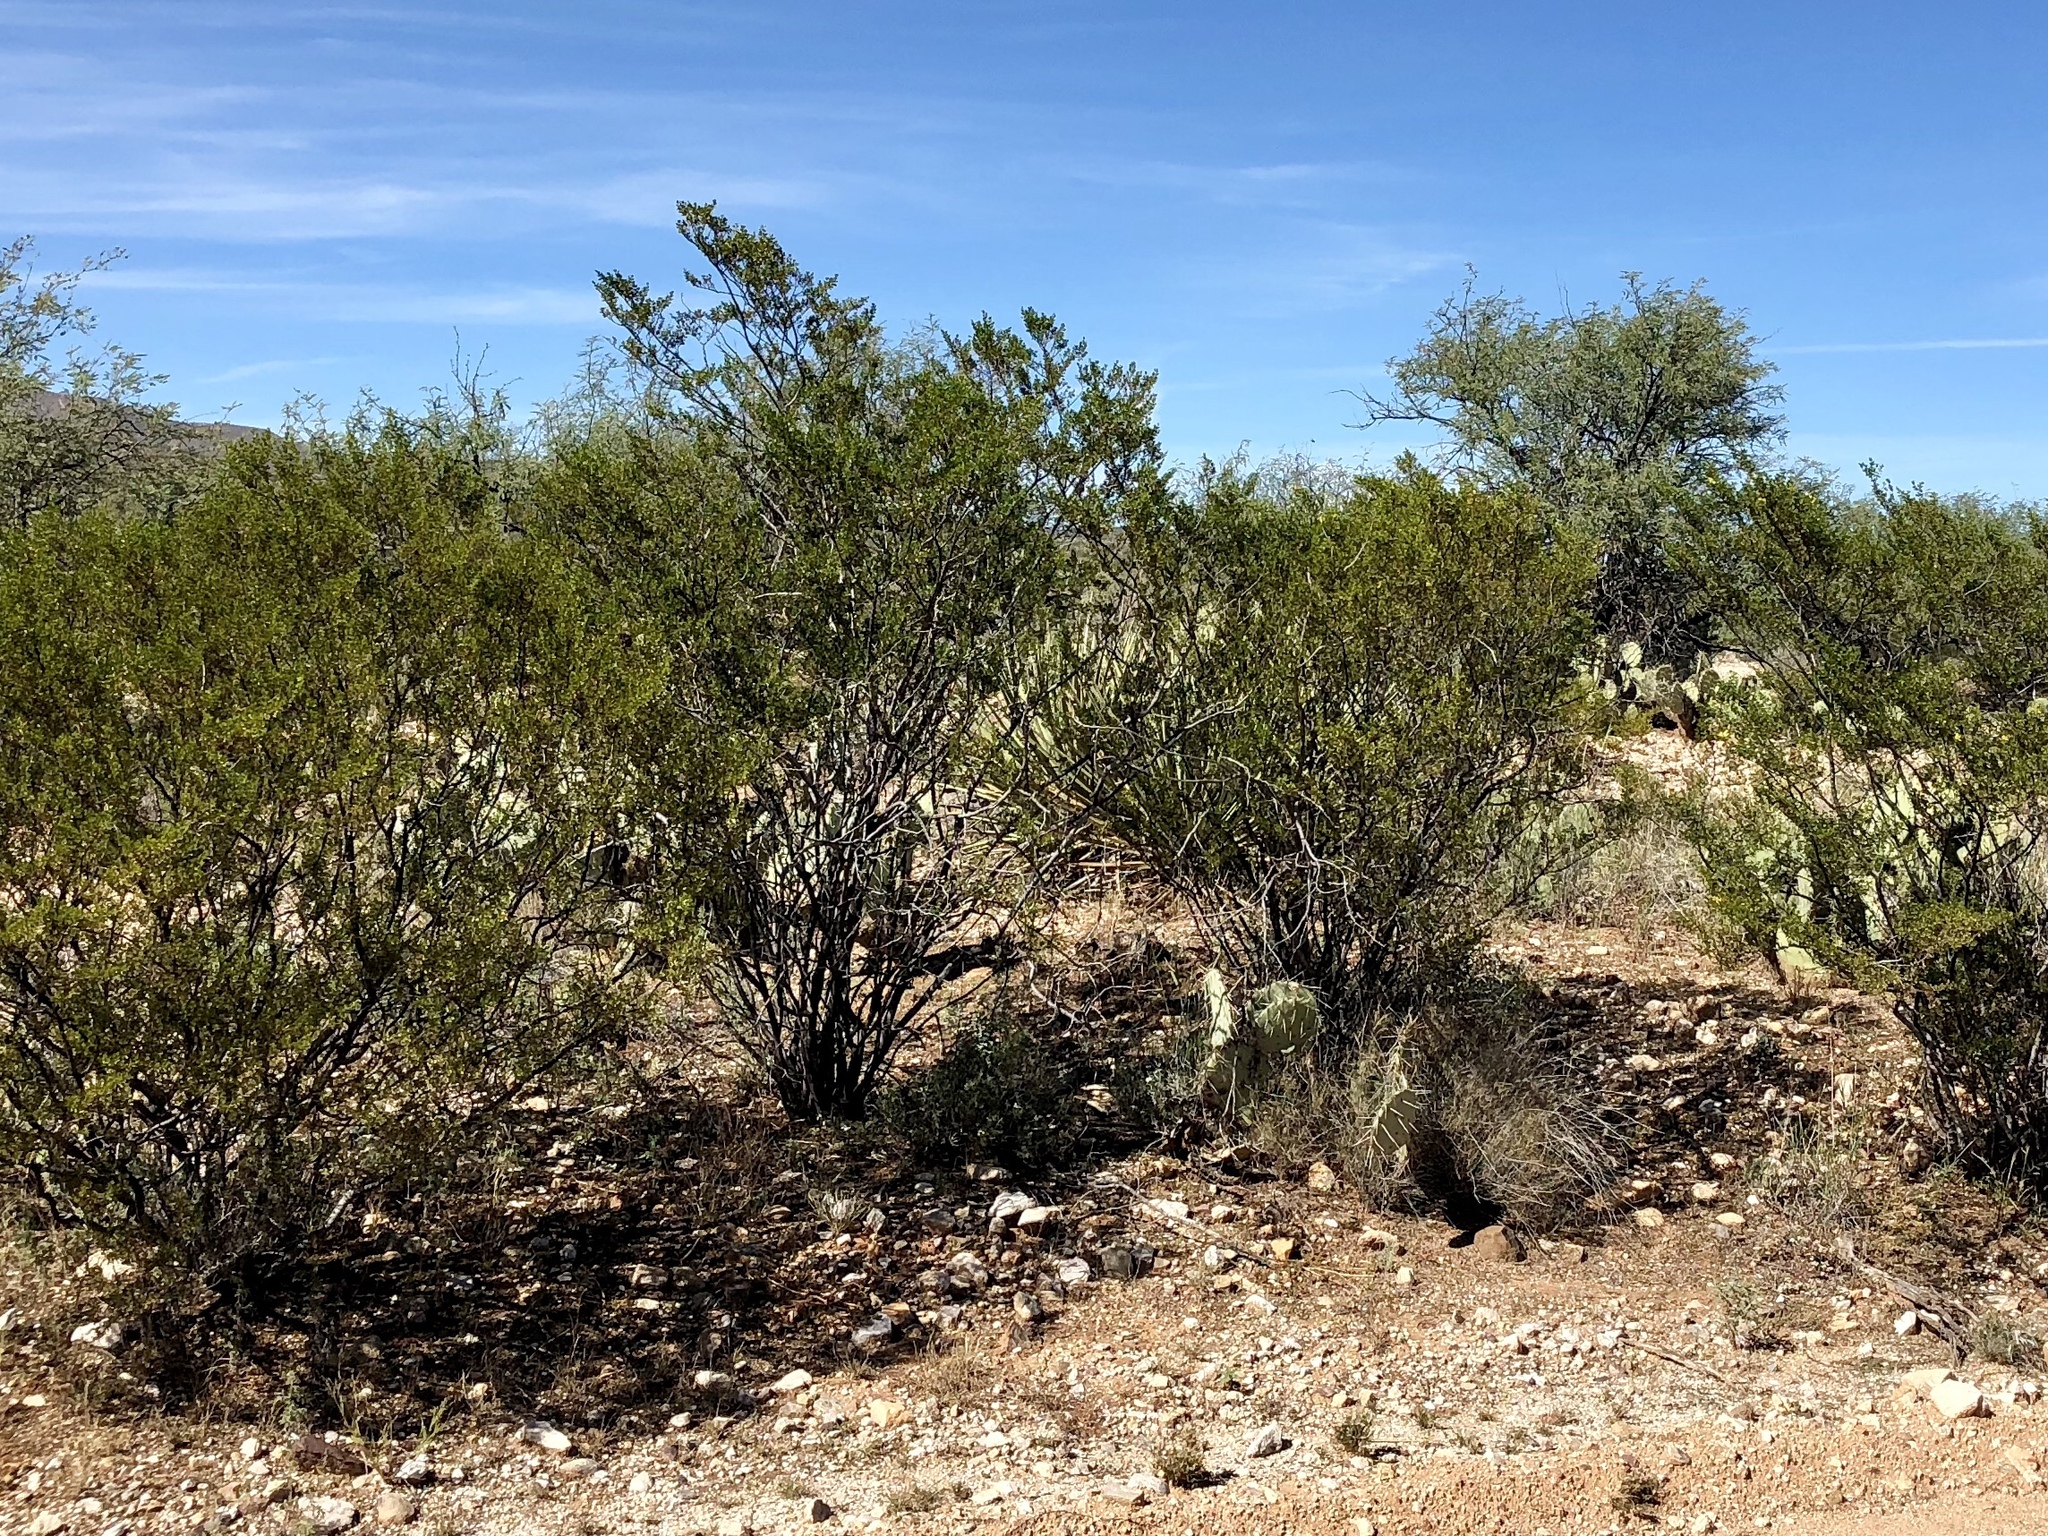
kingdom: Plantae
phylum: Tracheophyta
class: Magnoliopsida
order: Zygophyllales
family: Zygophyllaceae
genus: Larrea
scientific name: Larrea tridentata
